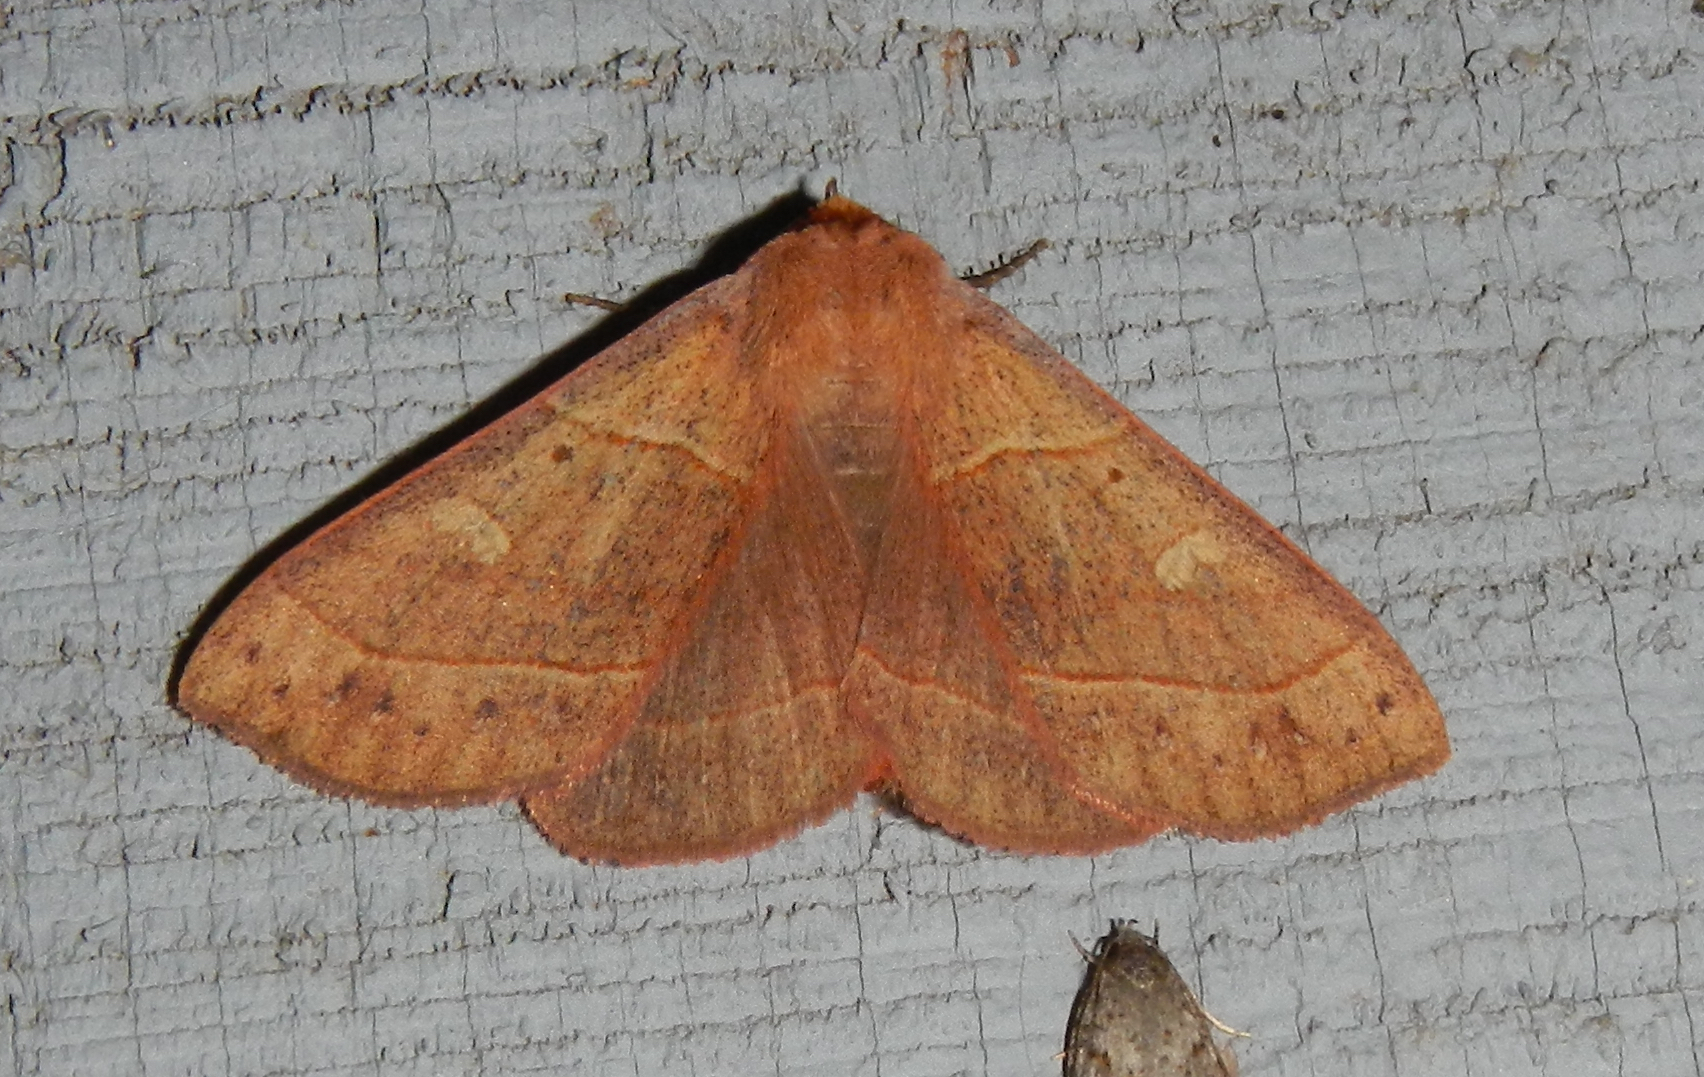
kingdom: Animalia
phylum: Arthropoda
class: Insecta
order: Lepidoptera
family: Erebidae
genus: Panopoda
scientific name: Panopoda rufimargo
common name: Red-lined panopoda moth
